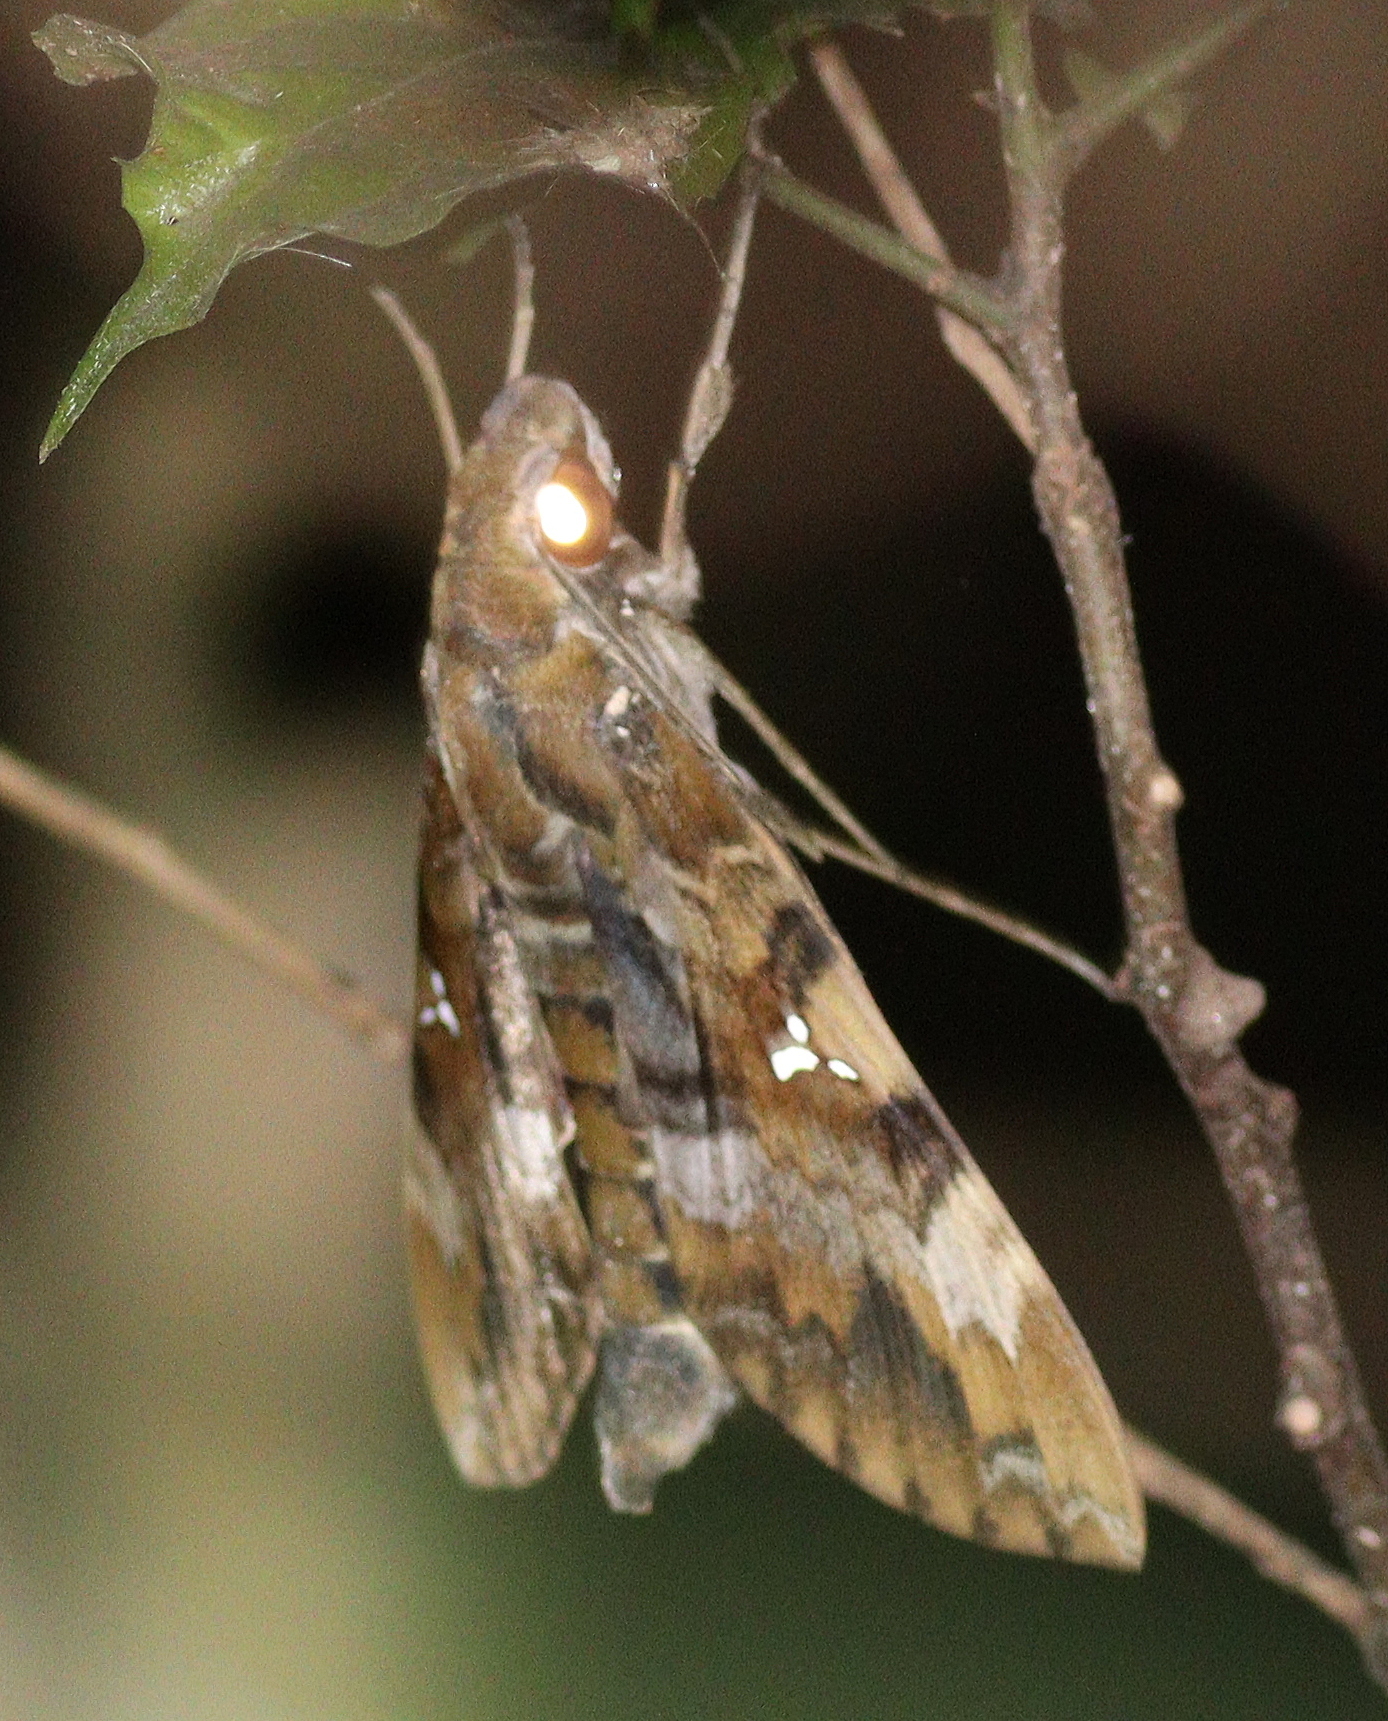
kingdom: Animalia
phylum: Arthropoda
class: Insecta
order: Lepidoptera
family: Sphingidae
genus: Nephele
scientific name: Nephele accentifera
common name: Accented hawk-moth
